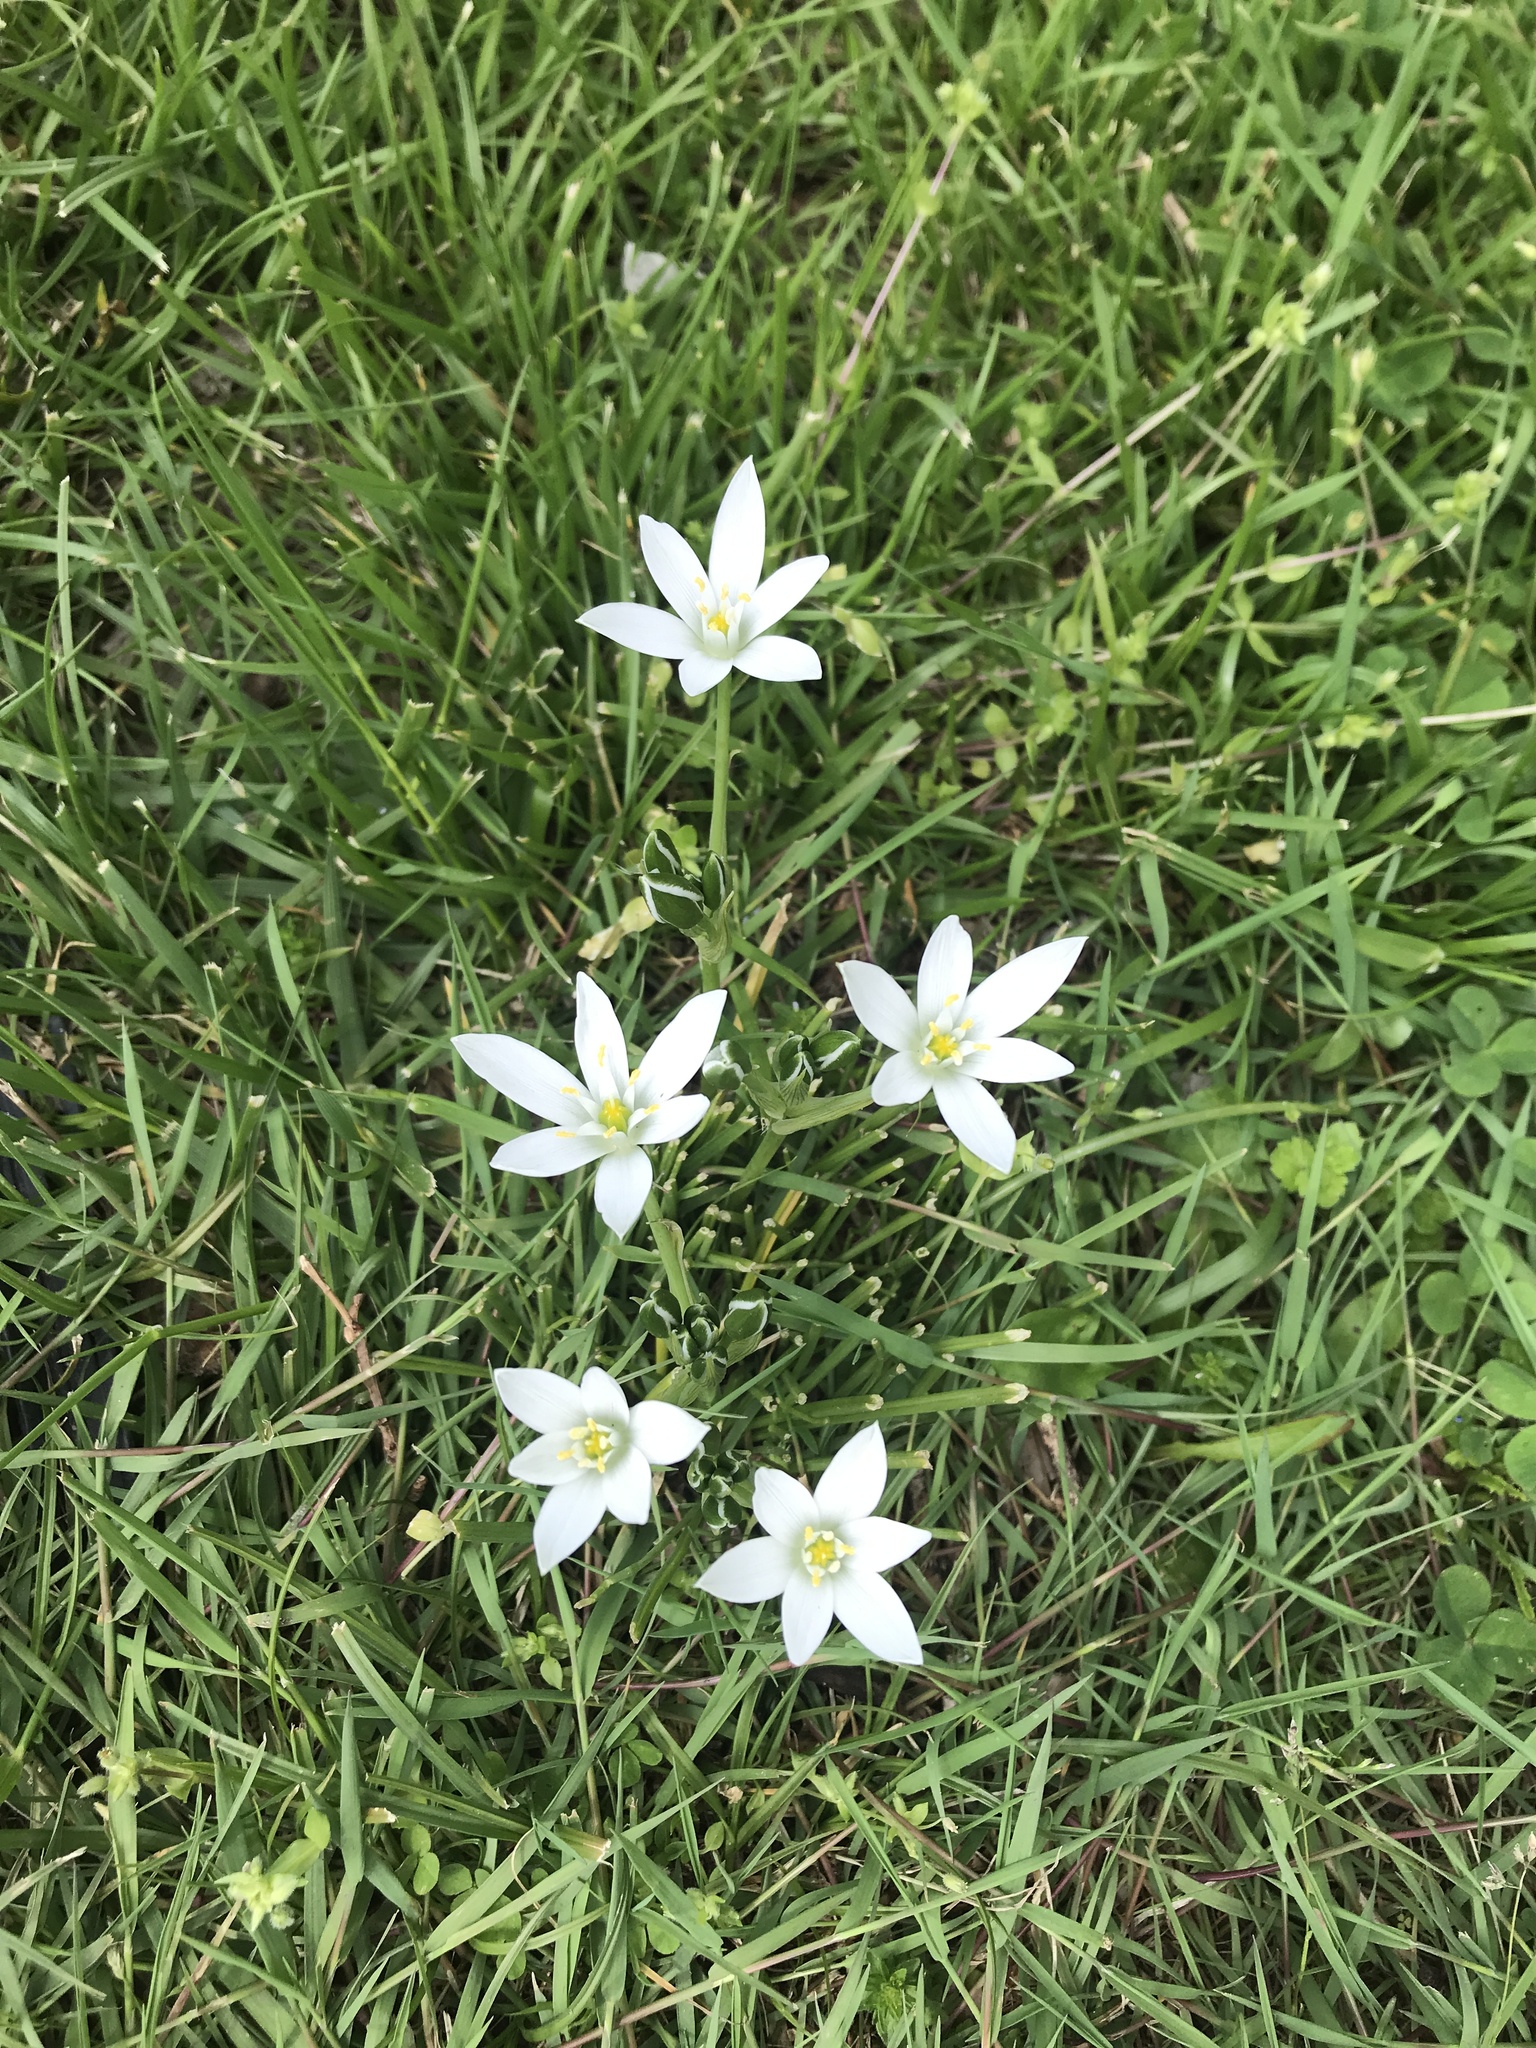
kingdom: Plantae
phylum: Tracheophyta
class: Liliopsida
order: Asparagales
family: Asparagaceae
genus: Ornithogalum
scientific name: Ornithogalum umbellatum
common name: Garden star-of-bethlehem
